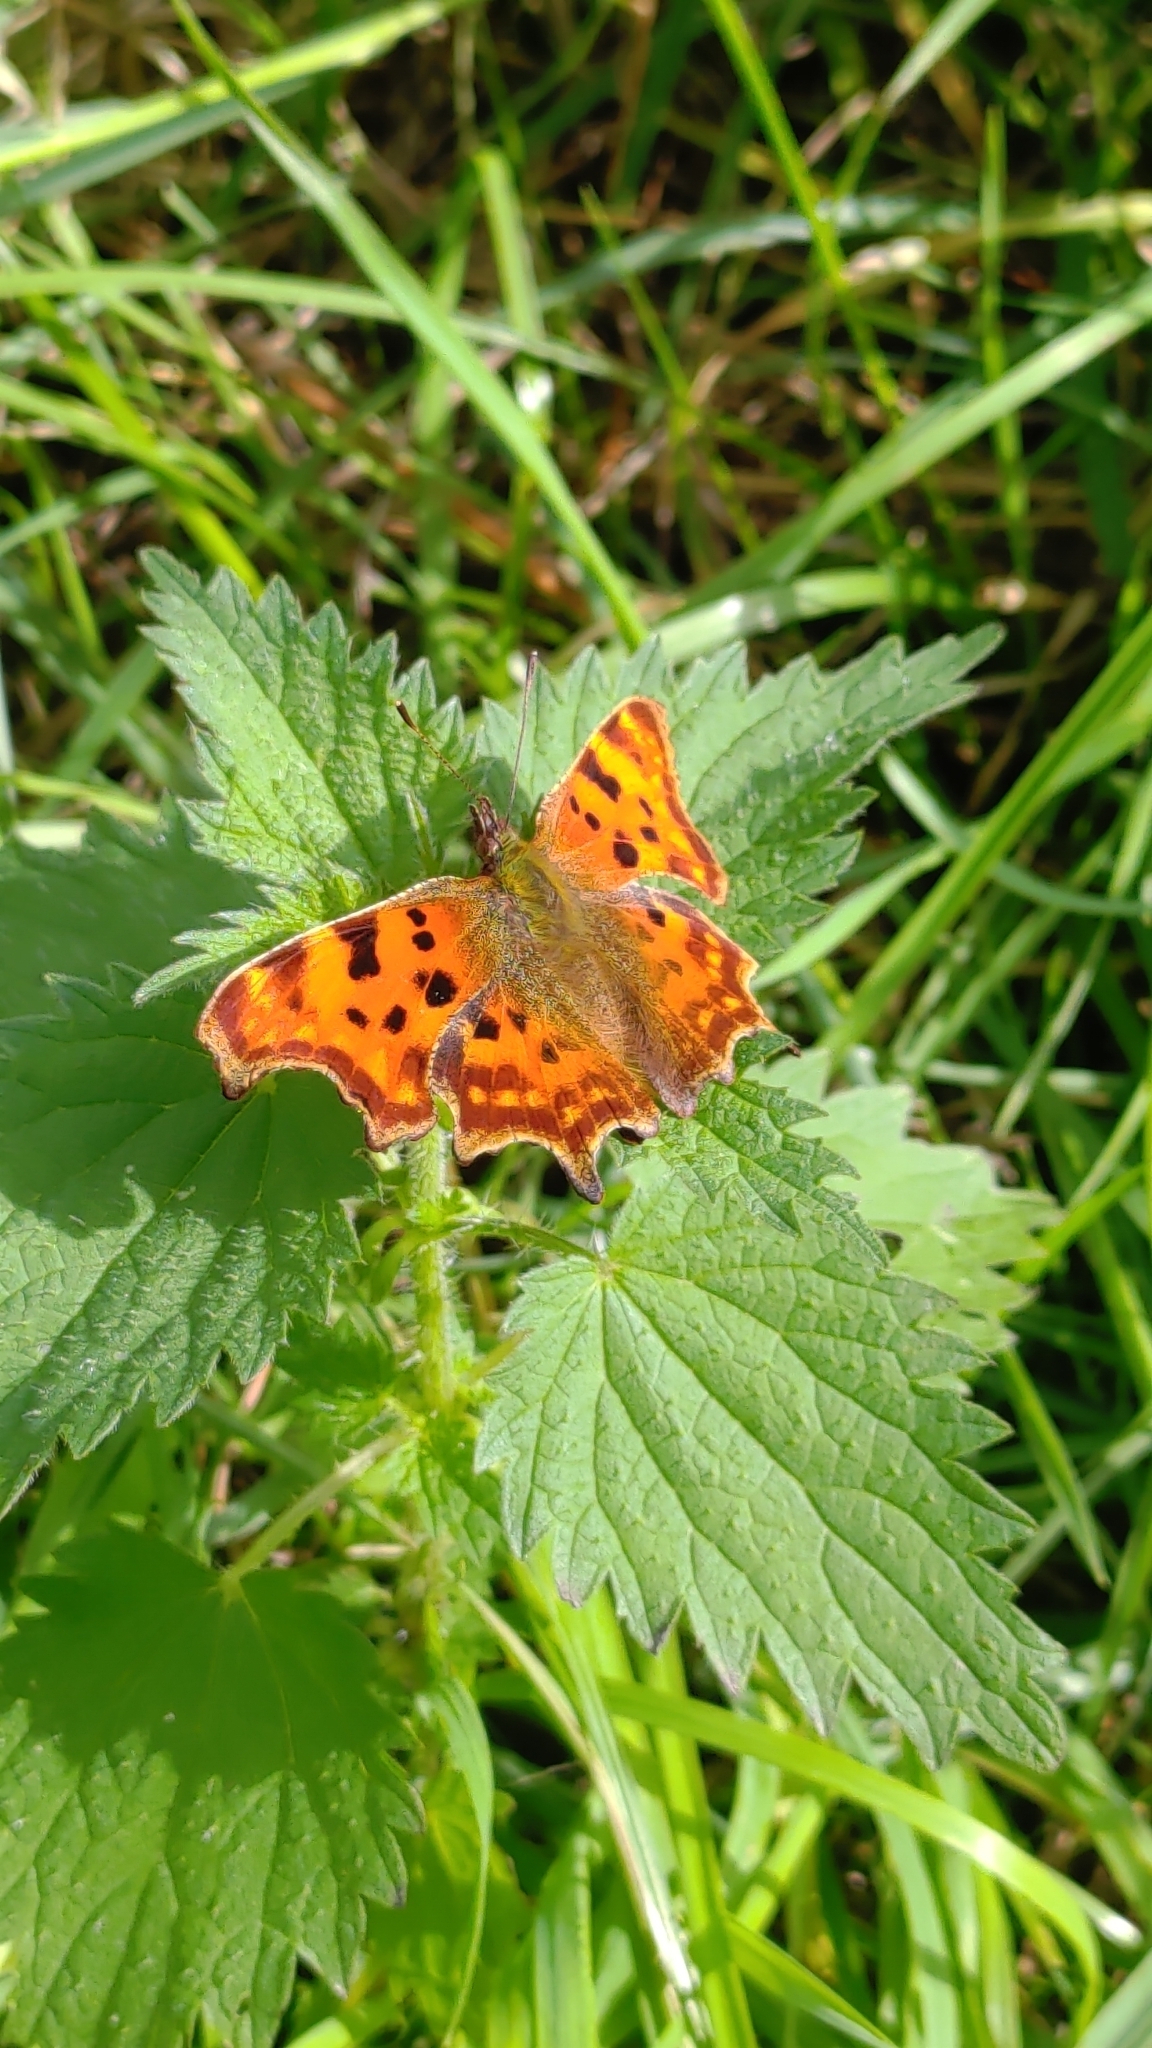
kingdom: Animalia
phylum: Arthropoda
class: Insecta
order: Lepidoptera
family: Nymphalidae
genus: Polygonia
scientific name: Polygonia c-album
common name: Comma
